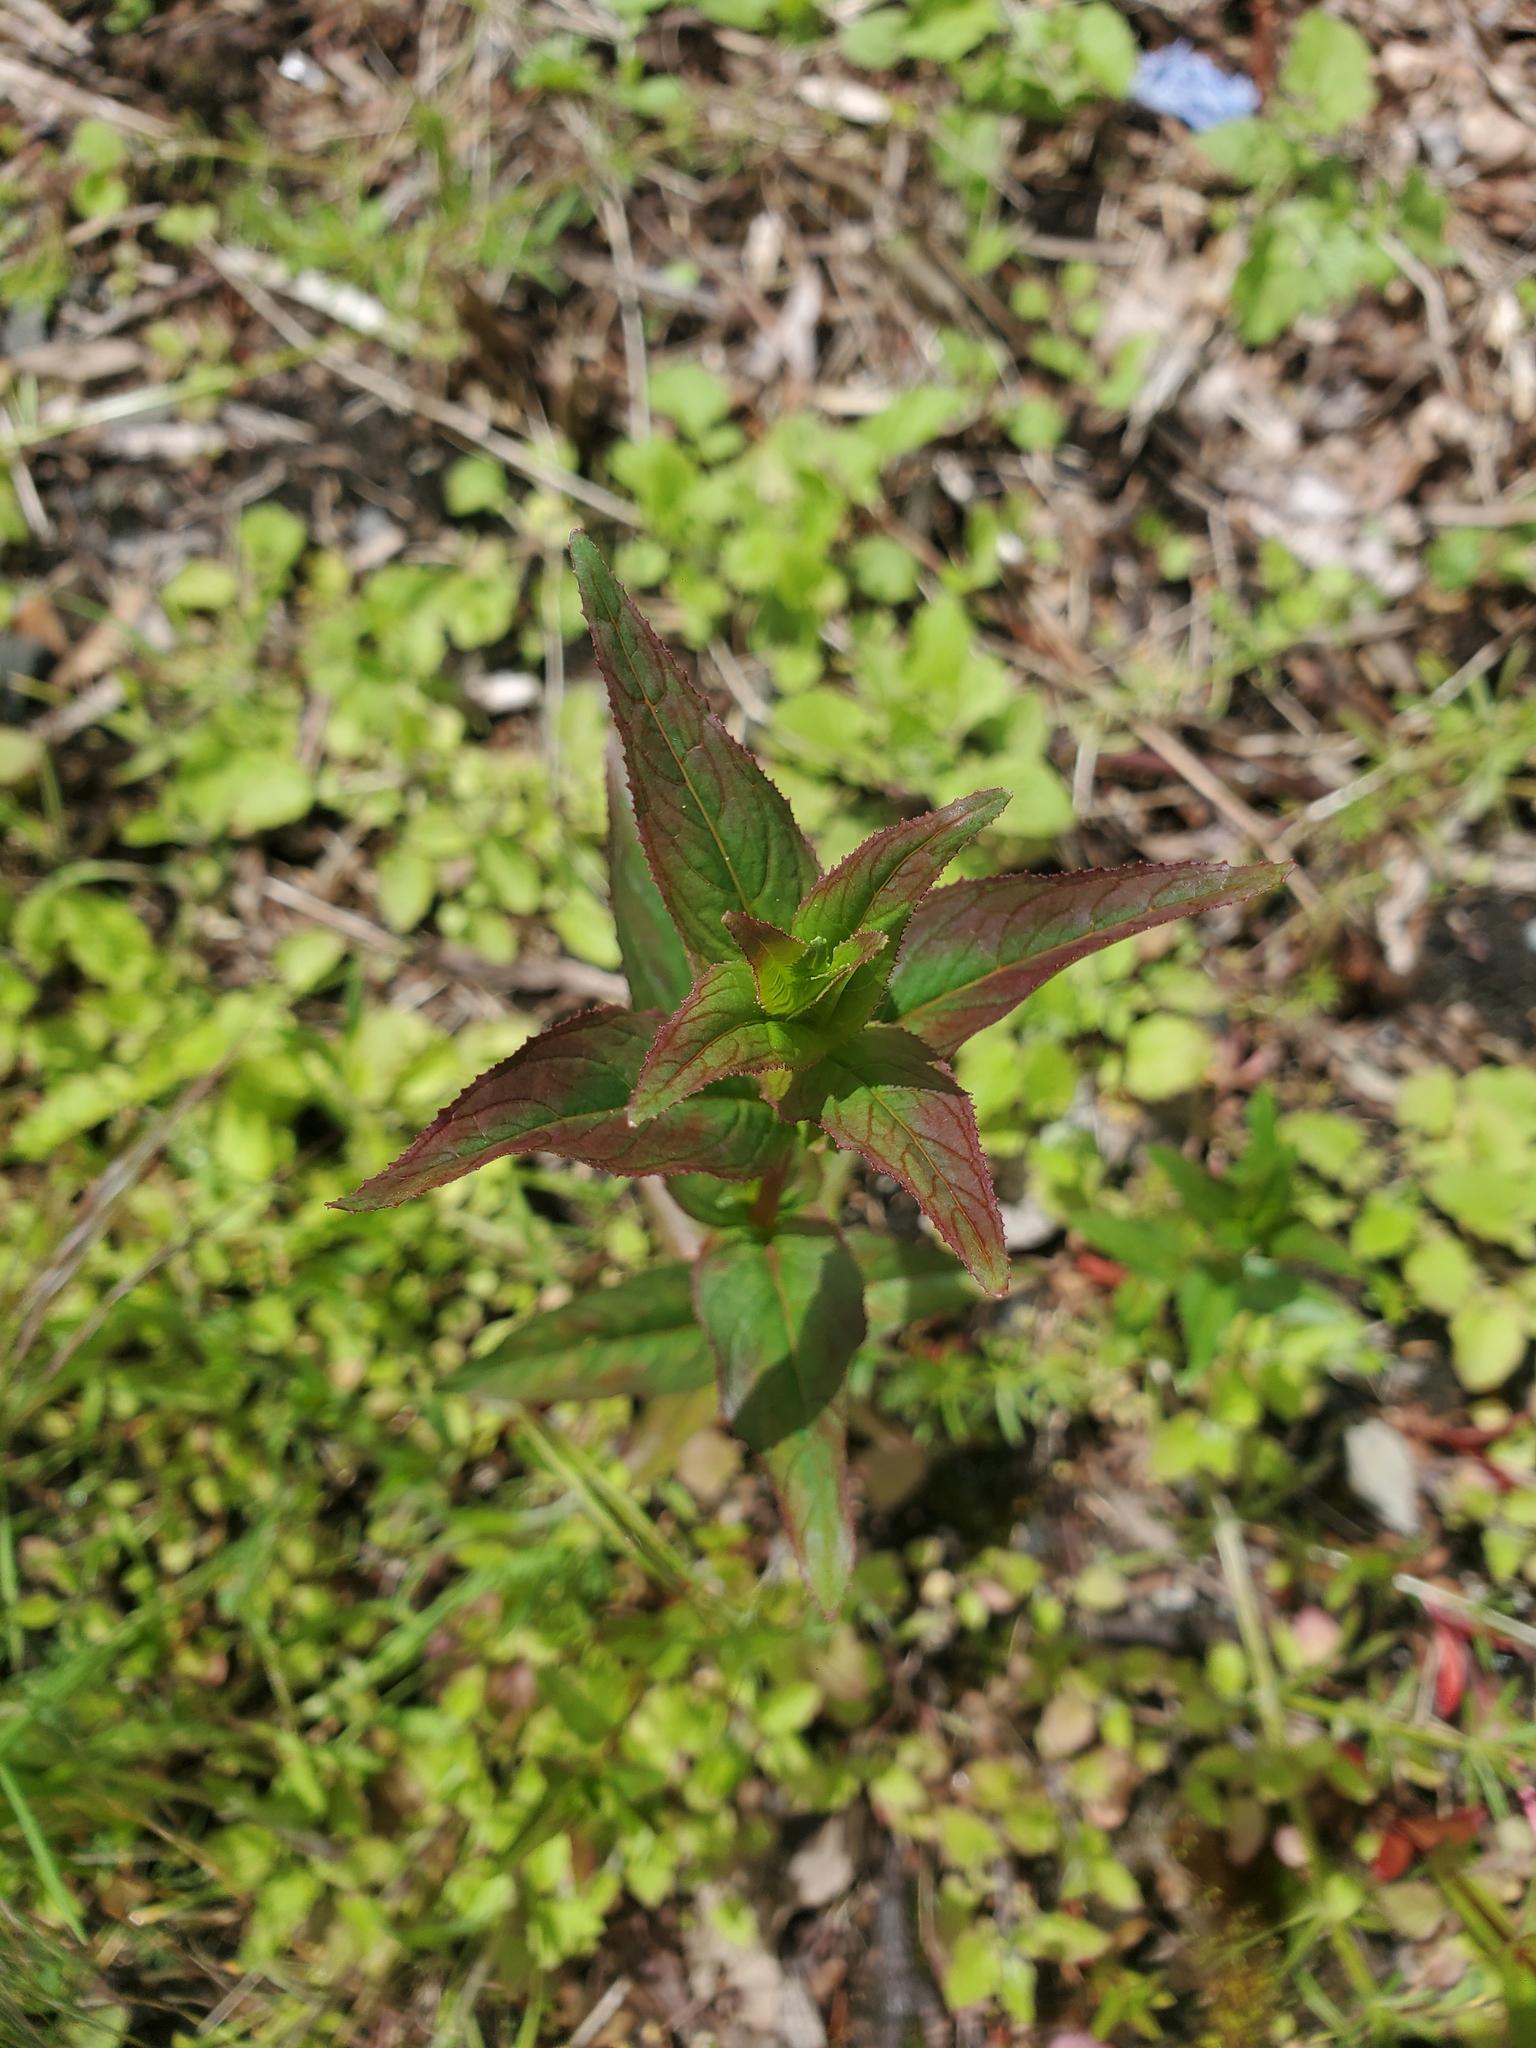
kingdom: Plantae
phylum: Tracheophyta
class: Magnoliopsida
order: Myrtales
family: Onagraceae
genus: Epilobium
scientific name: Epilobium ciliatum
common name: American willowherb
